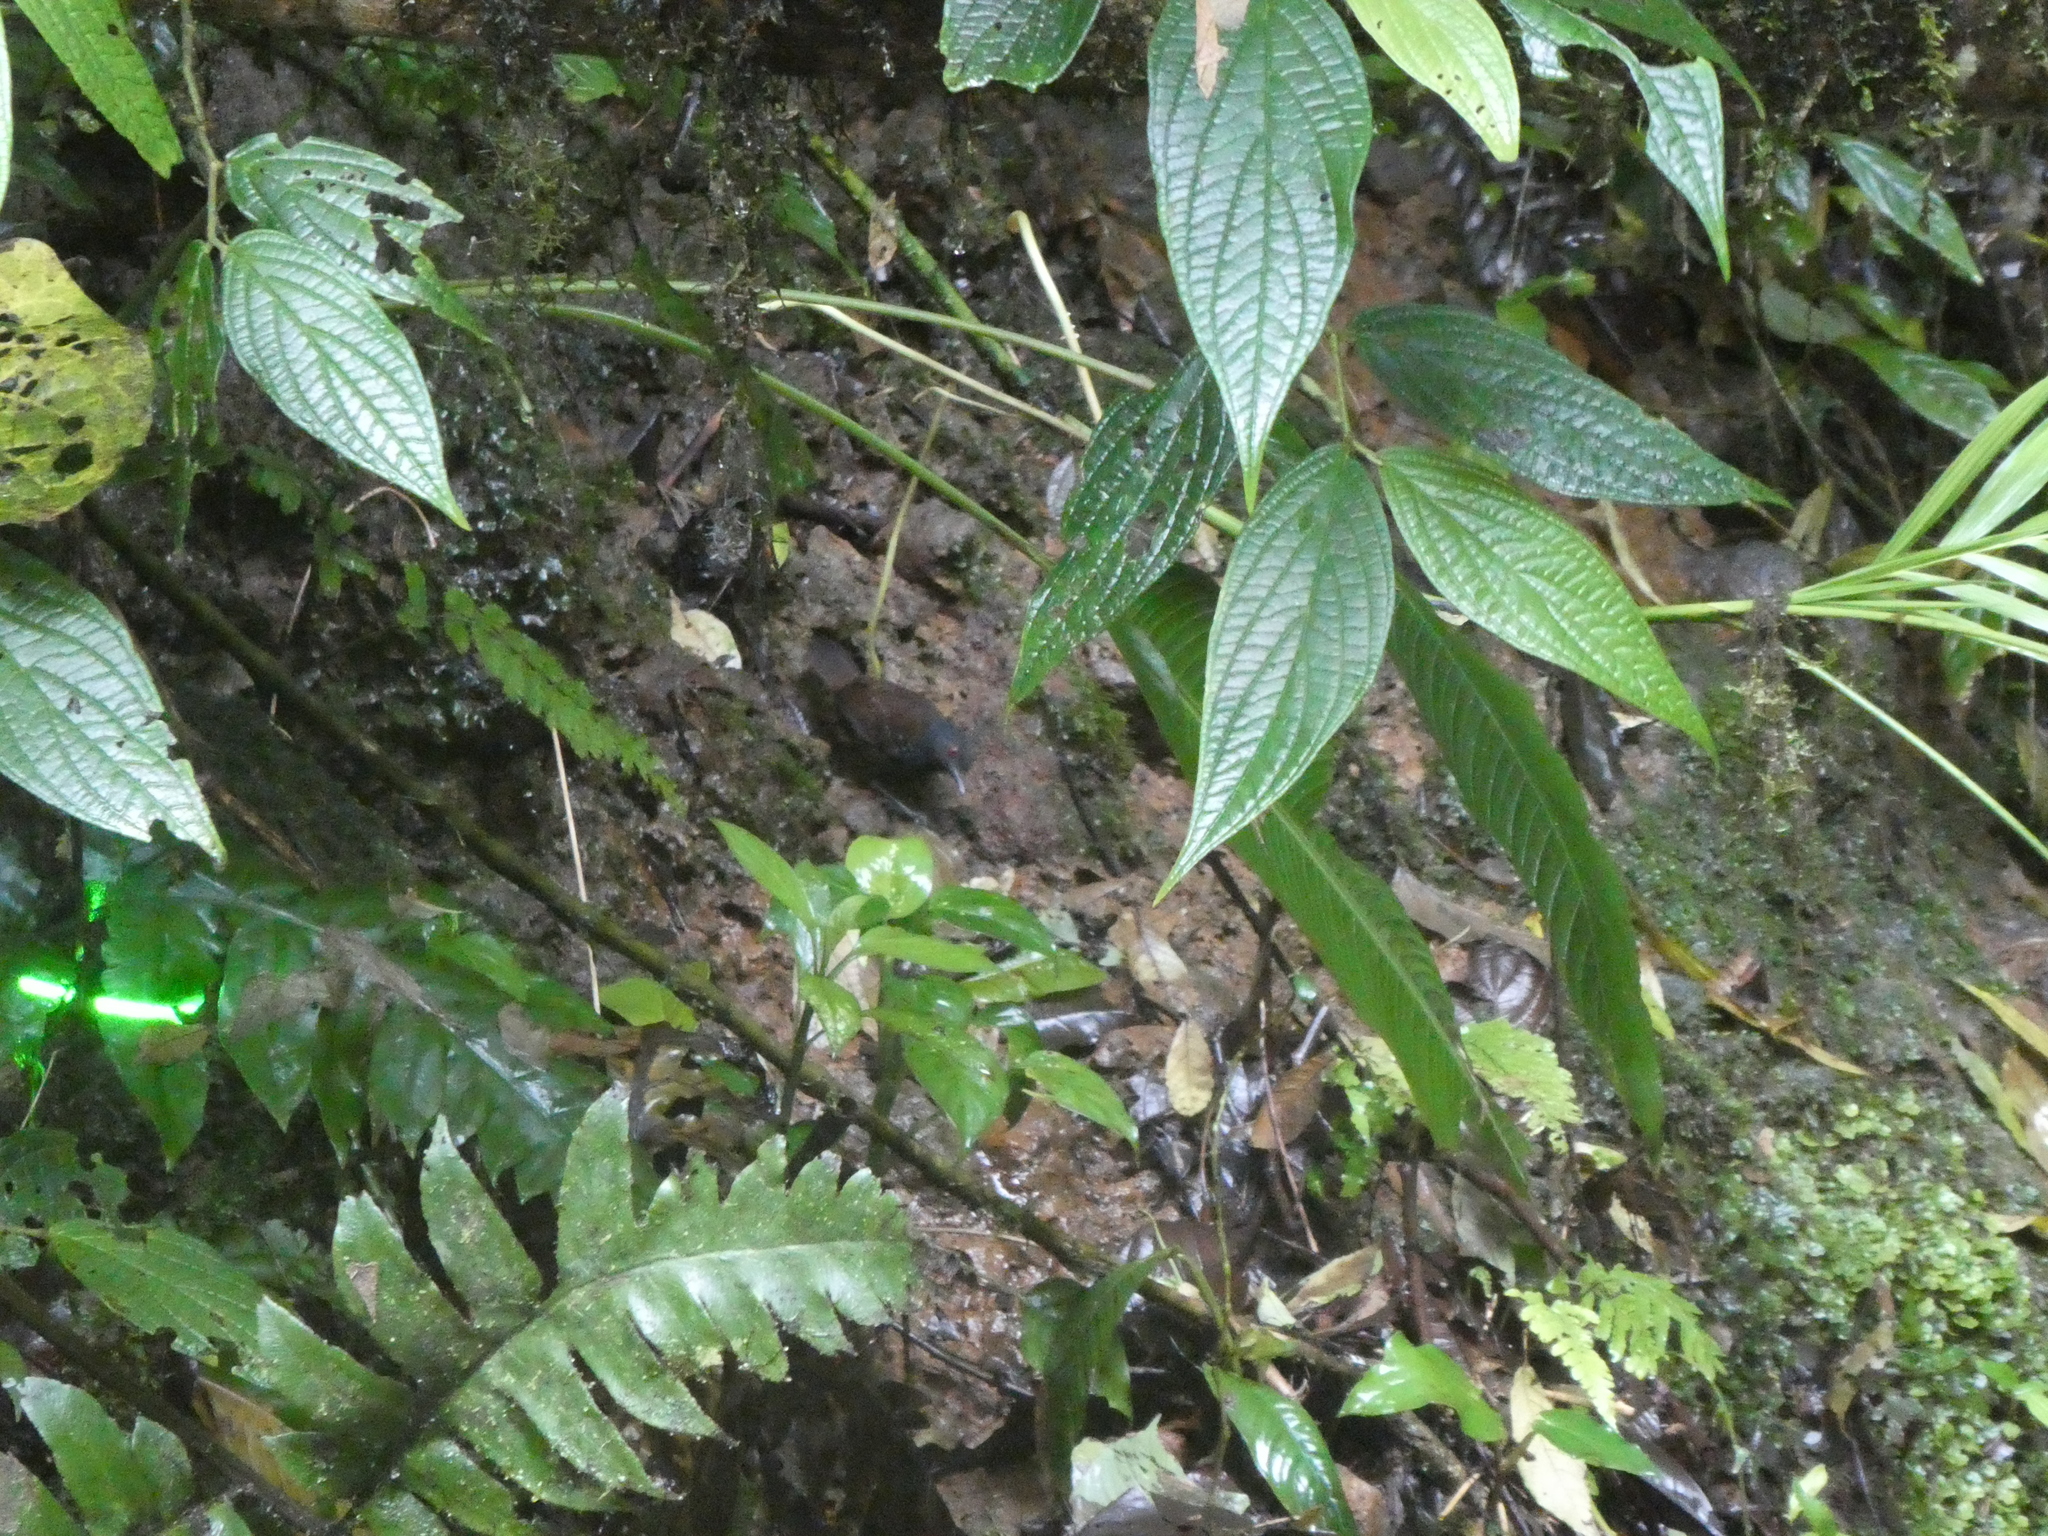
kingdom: Animalia
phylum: Chordata
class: Aves
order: Passeriformes
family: Thamnophilidae
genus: Sipia
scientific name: Sipia laemosticta
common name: Dull-mantled antbird
